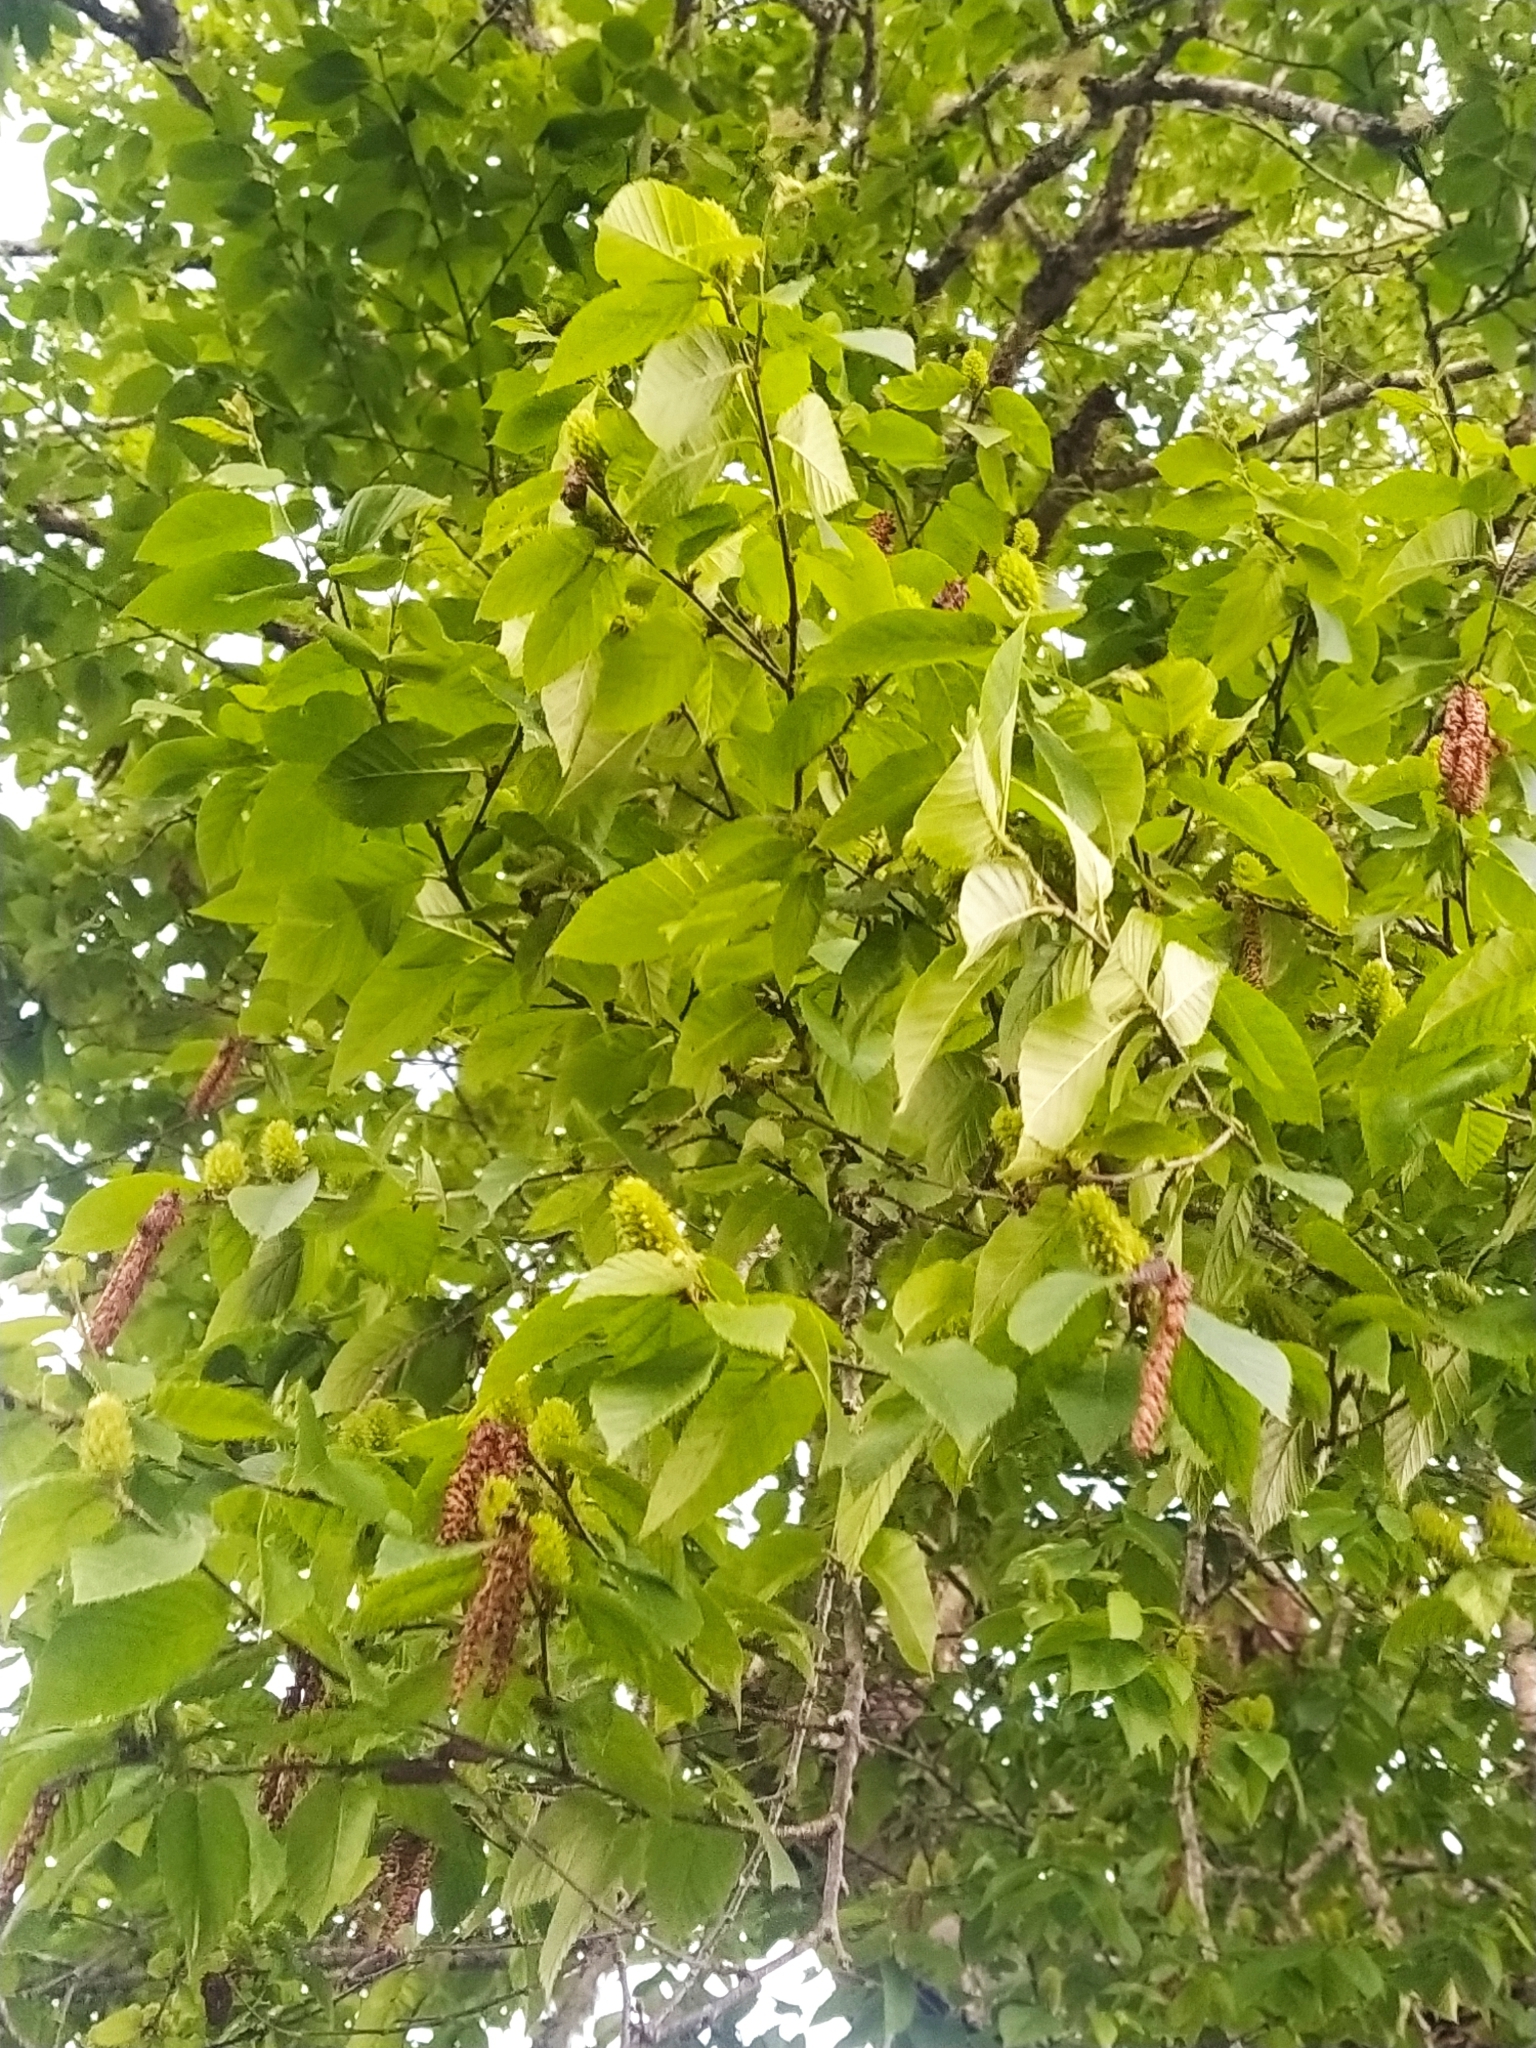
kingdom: Plantae
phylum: Tracheophyta
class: Magnoliopsida
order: Fagales
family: Betulaceae
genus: Betula
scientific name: Betula alleghaniensis
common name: Yellow birch
